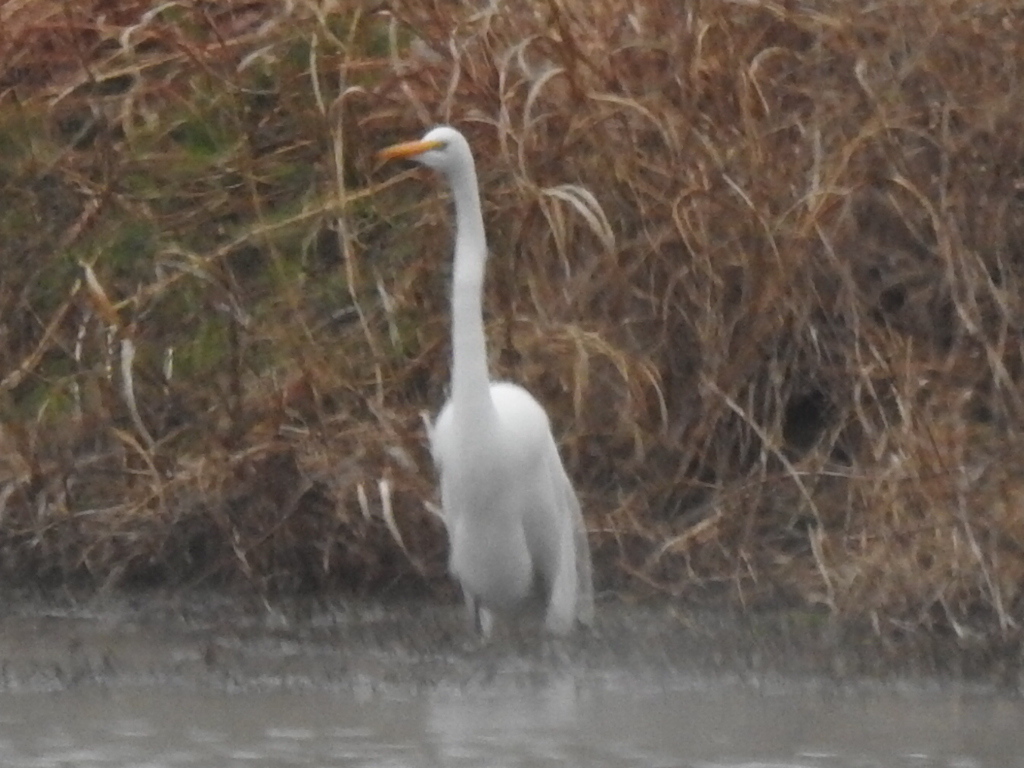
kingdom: Animalia
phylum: Chordata
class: Aves
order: Pelecaniformes
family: Ardeidae
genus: Ardea
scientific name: Ardea alba
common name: Great egret
